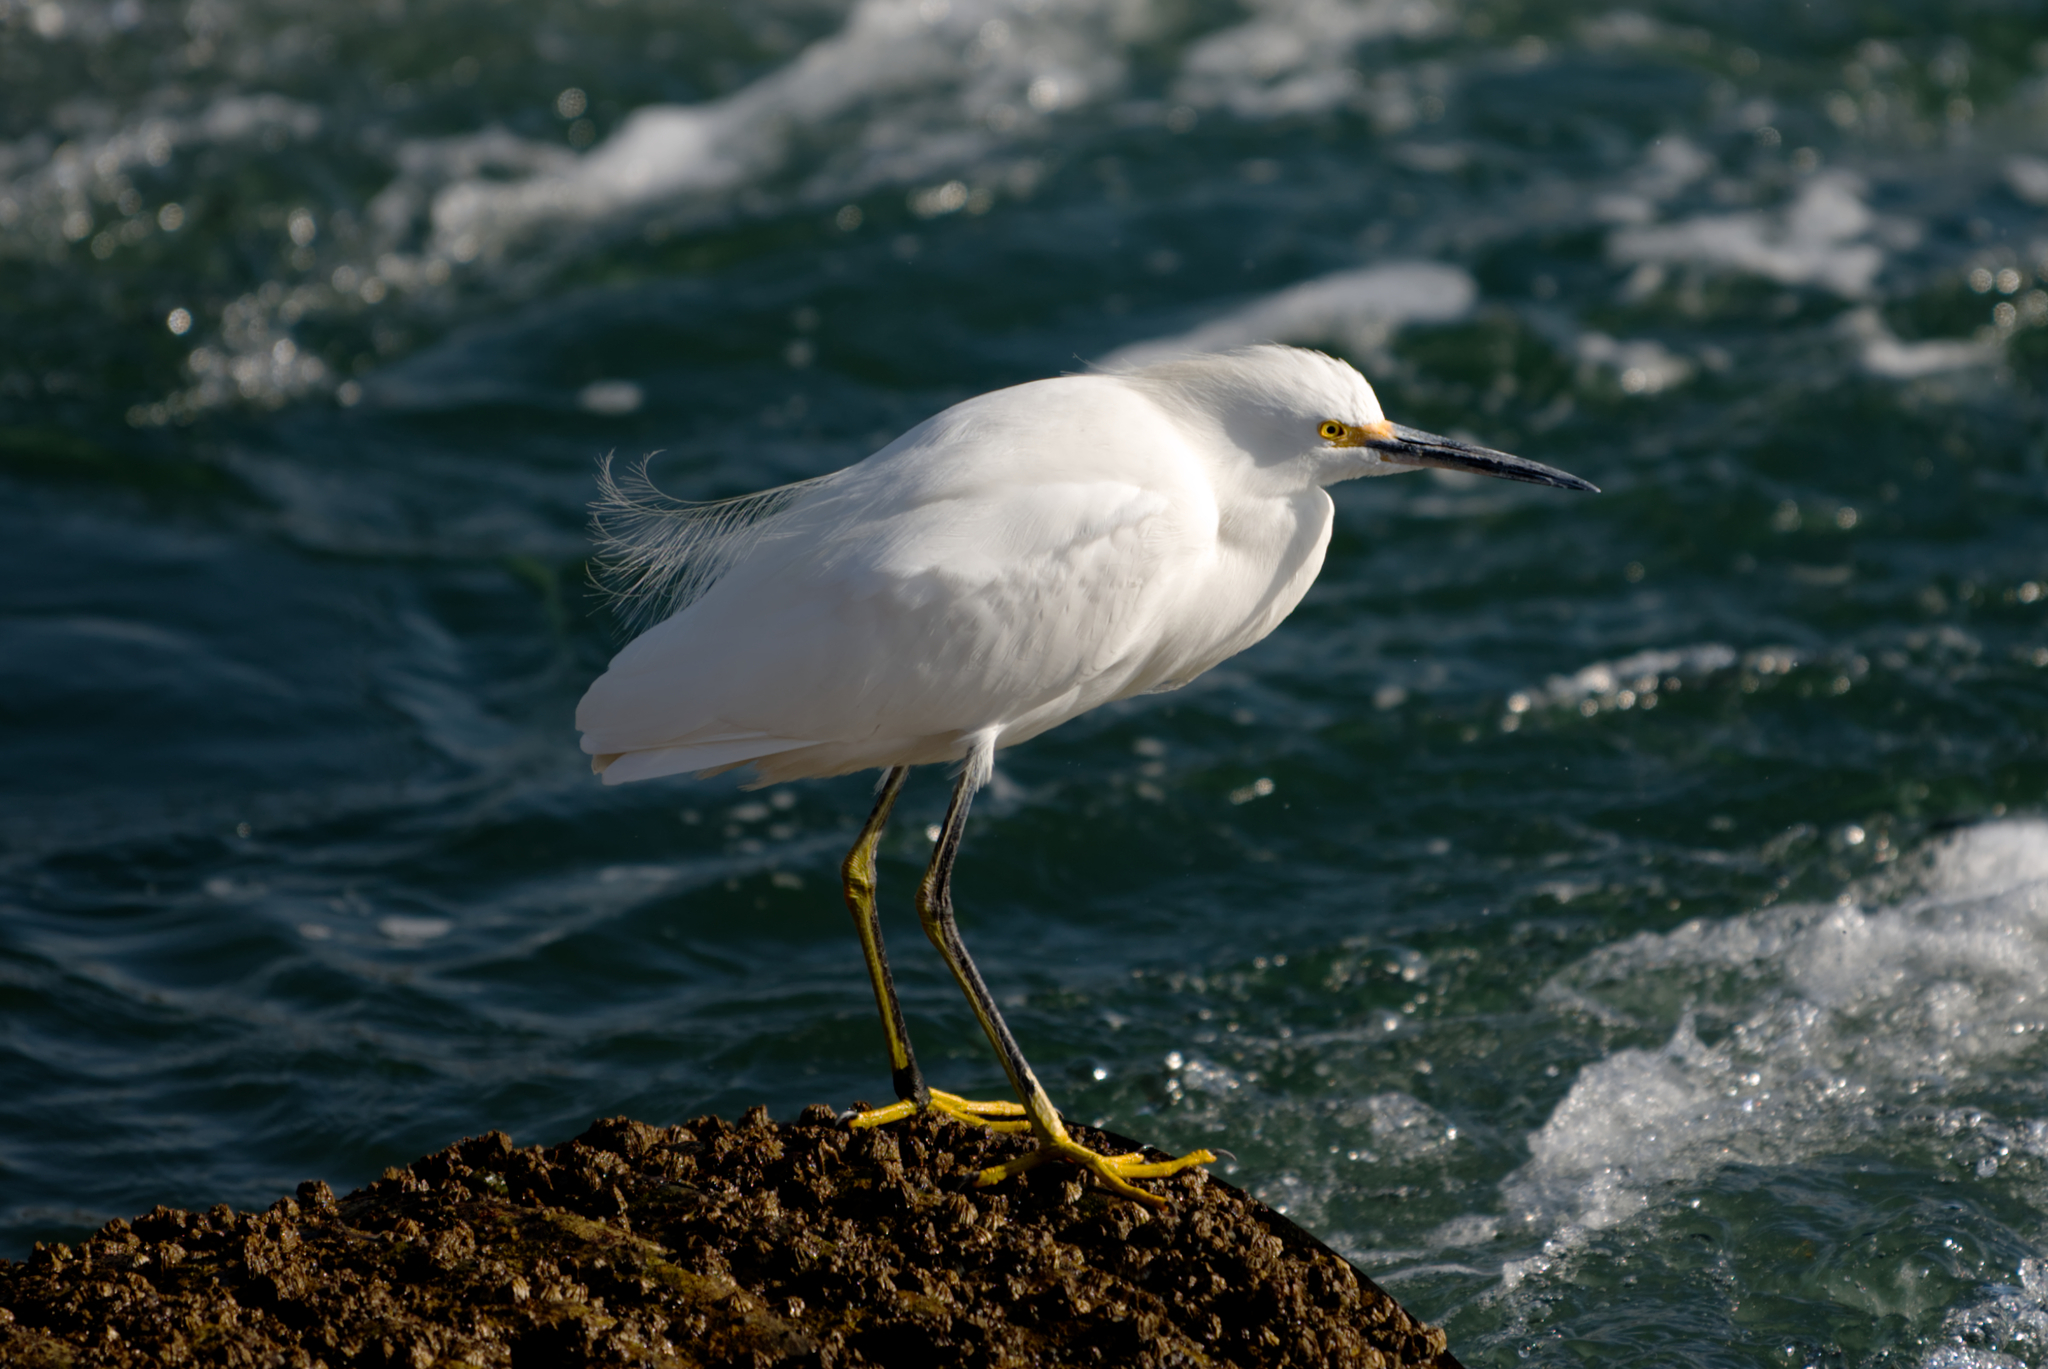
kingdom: Animalia
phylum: Chordata
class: Aves
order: Pelecaniformes
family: Ardeidae
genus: Egretta
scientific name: Egretta thula
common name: Snowy egret
